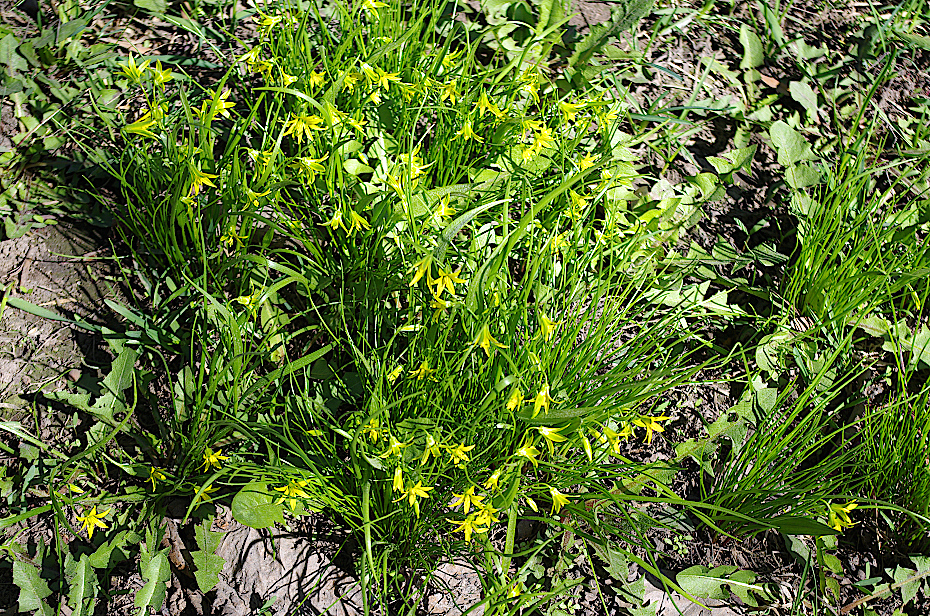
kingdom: Plantae
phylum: Tracheophyta
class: Liliopsida
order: Liliales
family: Liliaceae
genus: Gagea
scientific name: Gagea minima
